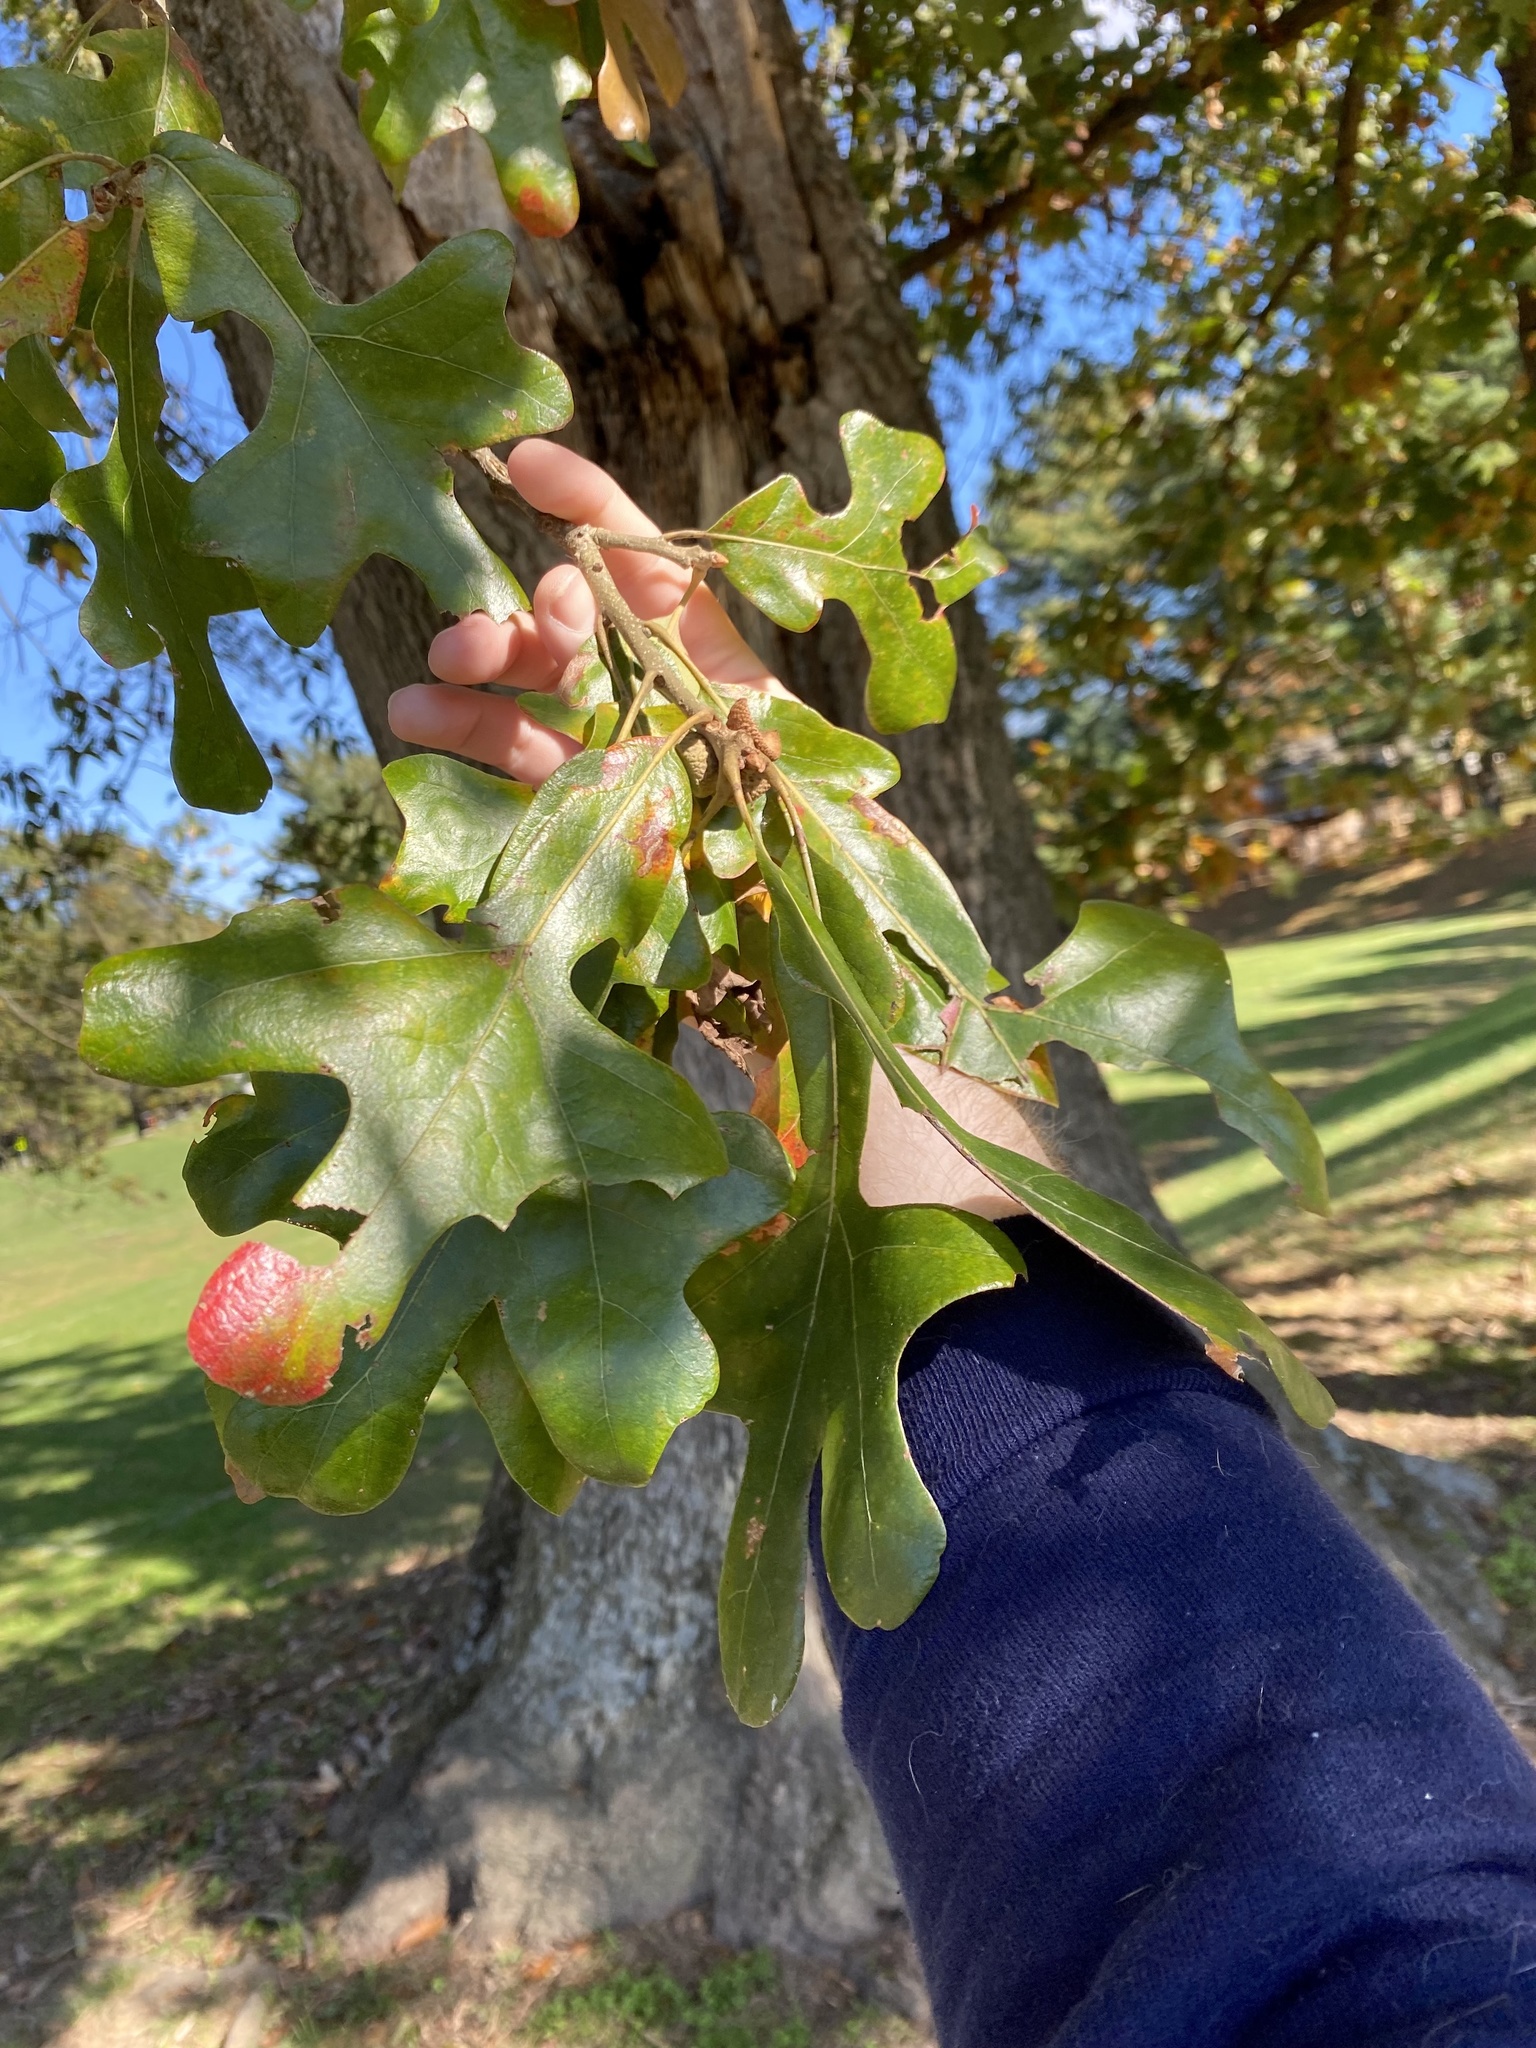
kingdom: Plantae
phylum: Tracheophyta
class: Magnoliopsida
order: Fagales
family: Fagaceae
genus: Quercus
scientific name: Quercus stellata
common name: Post oak
